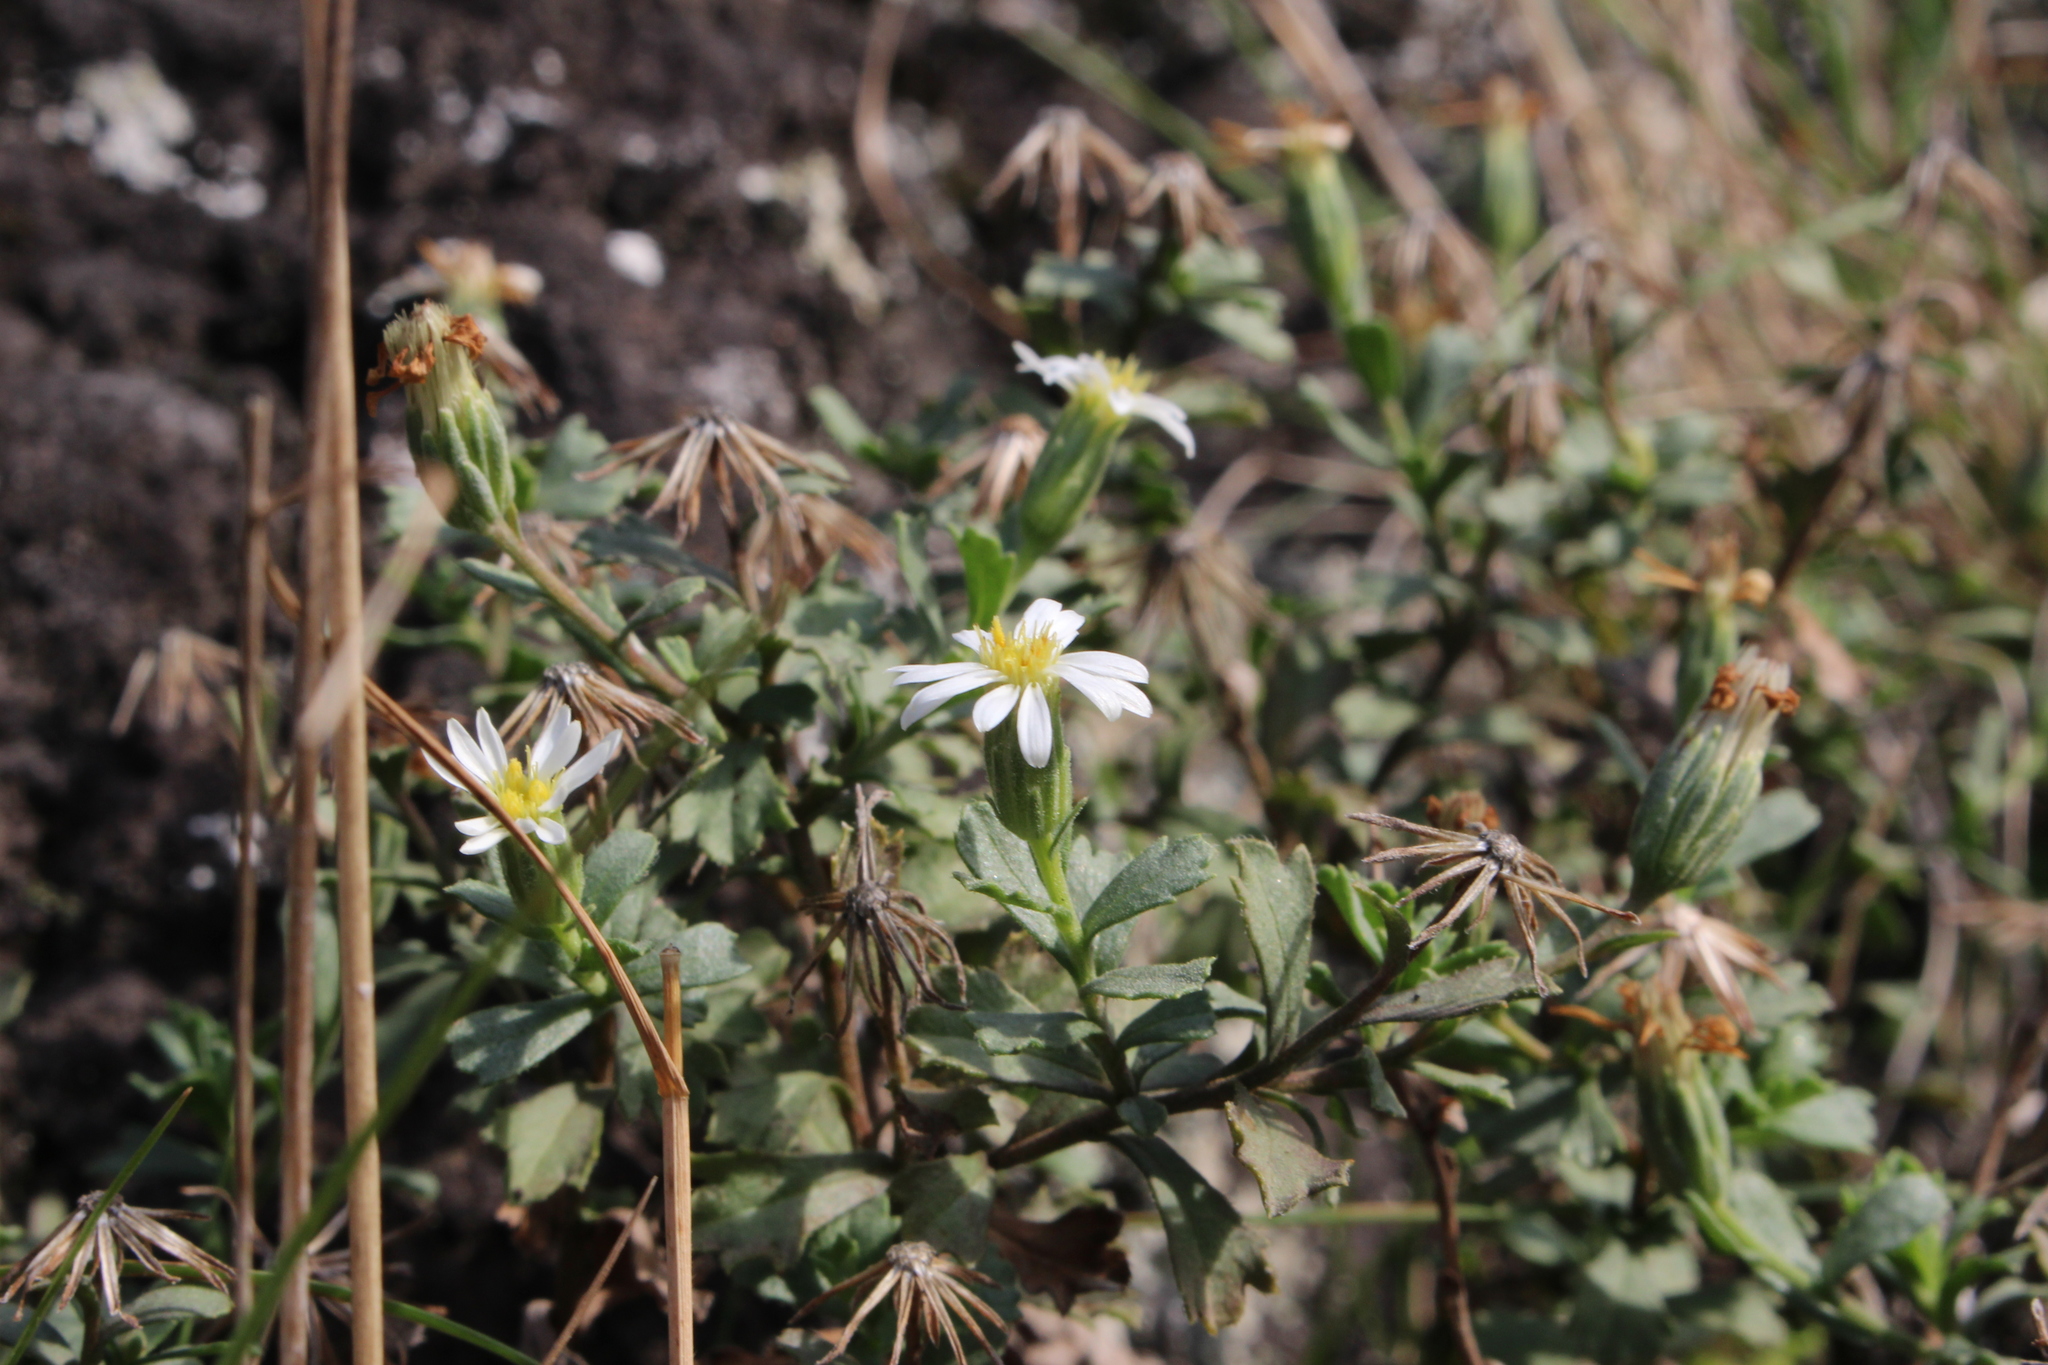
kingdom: Plantae
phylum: Tracheophyta
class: Magnoliopsida
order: Asterales
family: Asteraceae
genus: Vittadinia
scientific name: Vittadinia australis
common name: White fuzzweed
